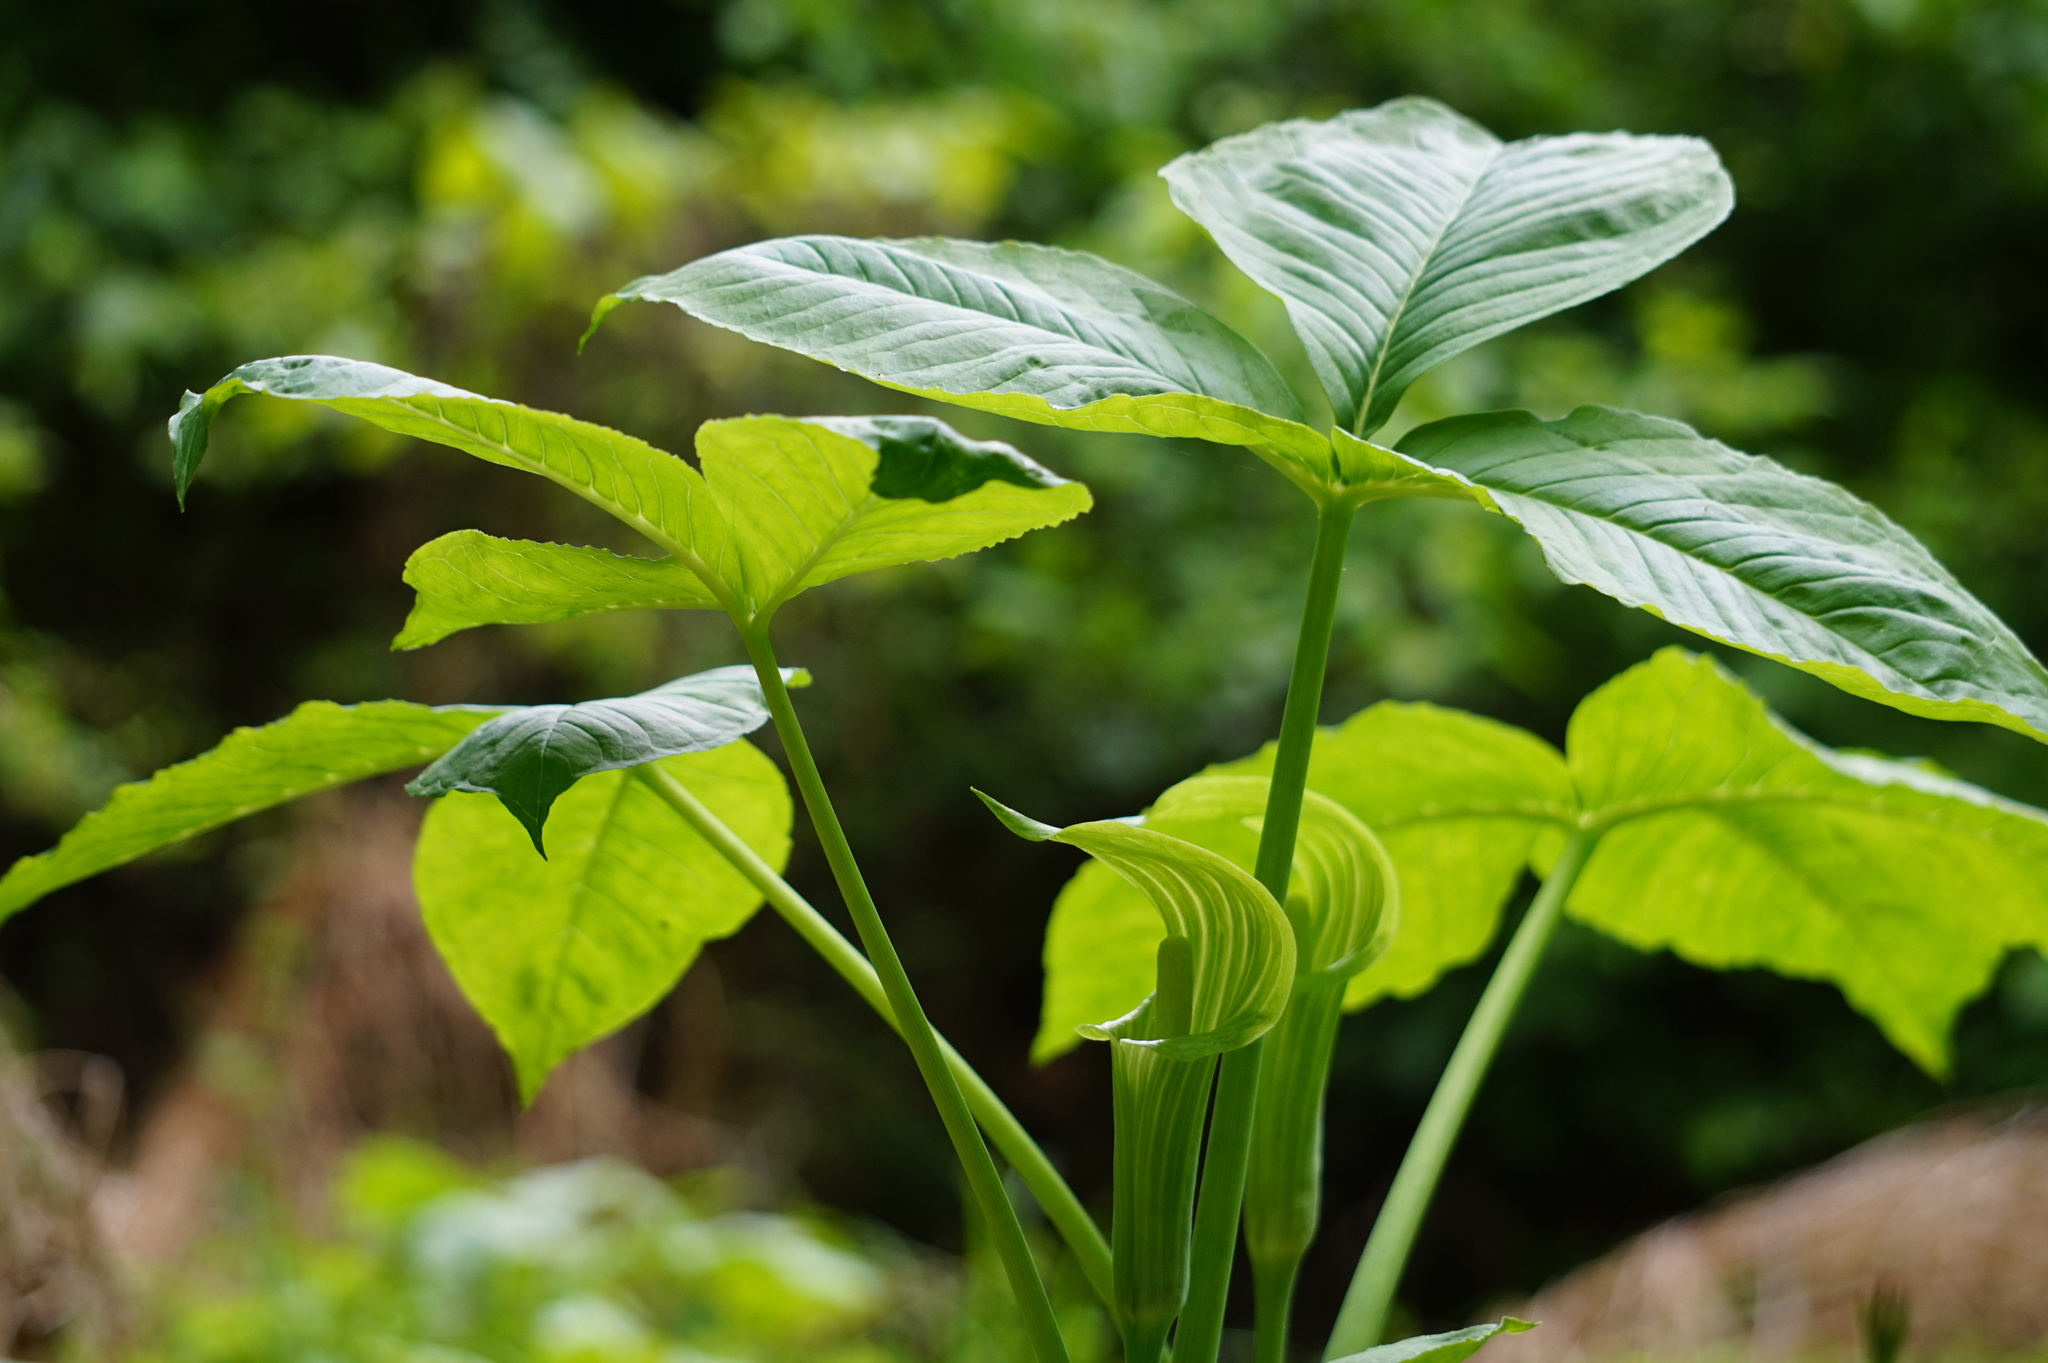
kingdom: Plantae
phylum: Tracheophyta
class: Liliopsida
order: Alismatales
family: Araceae
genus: Arisaema
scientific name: Arisaema triphyllum
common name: Jack-in-the-pulpit
